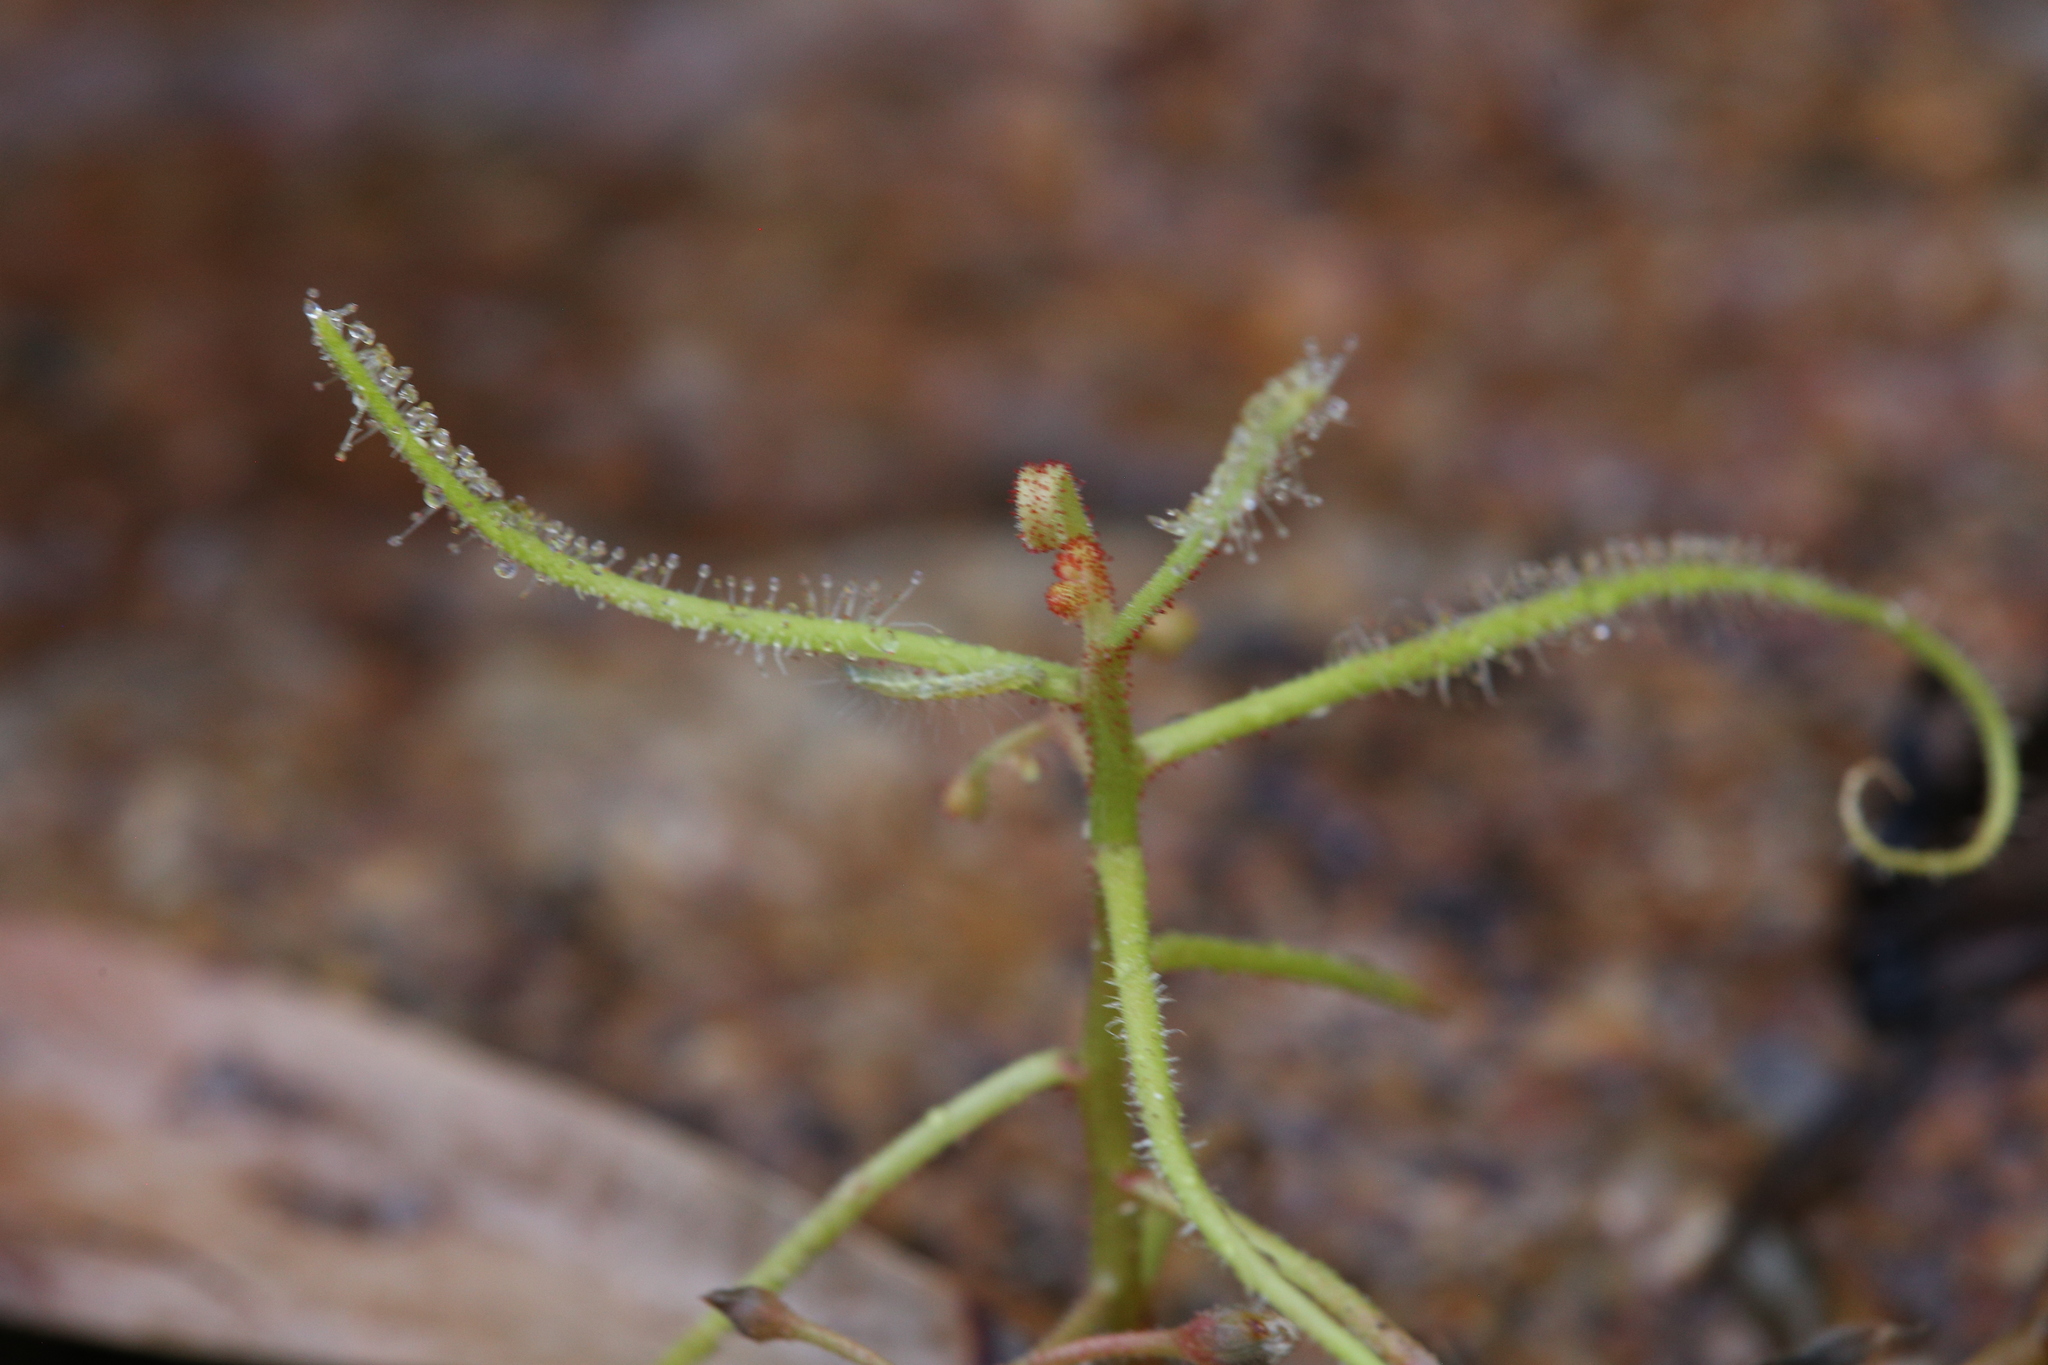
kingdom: Plantae
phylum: Tracheophyta
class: Magnoliopsida
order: Caryophyllales
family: Droseraceae
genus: Drosera
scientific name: Drosera indica
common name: Indian sundew
